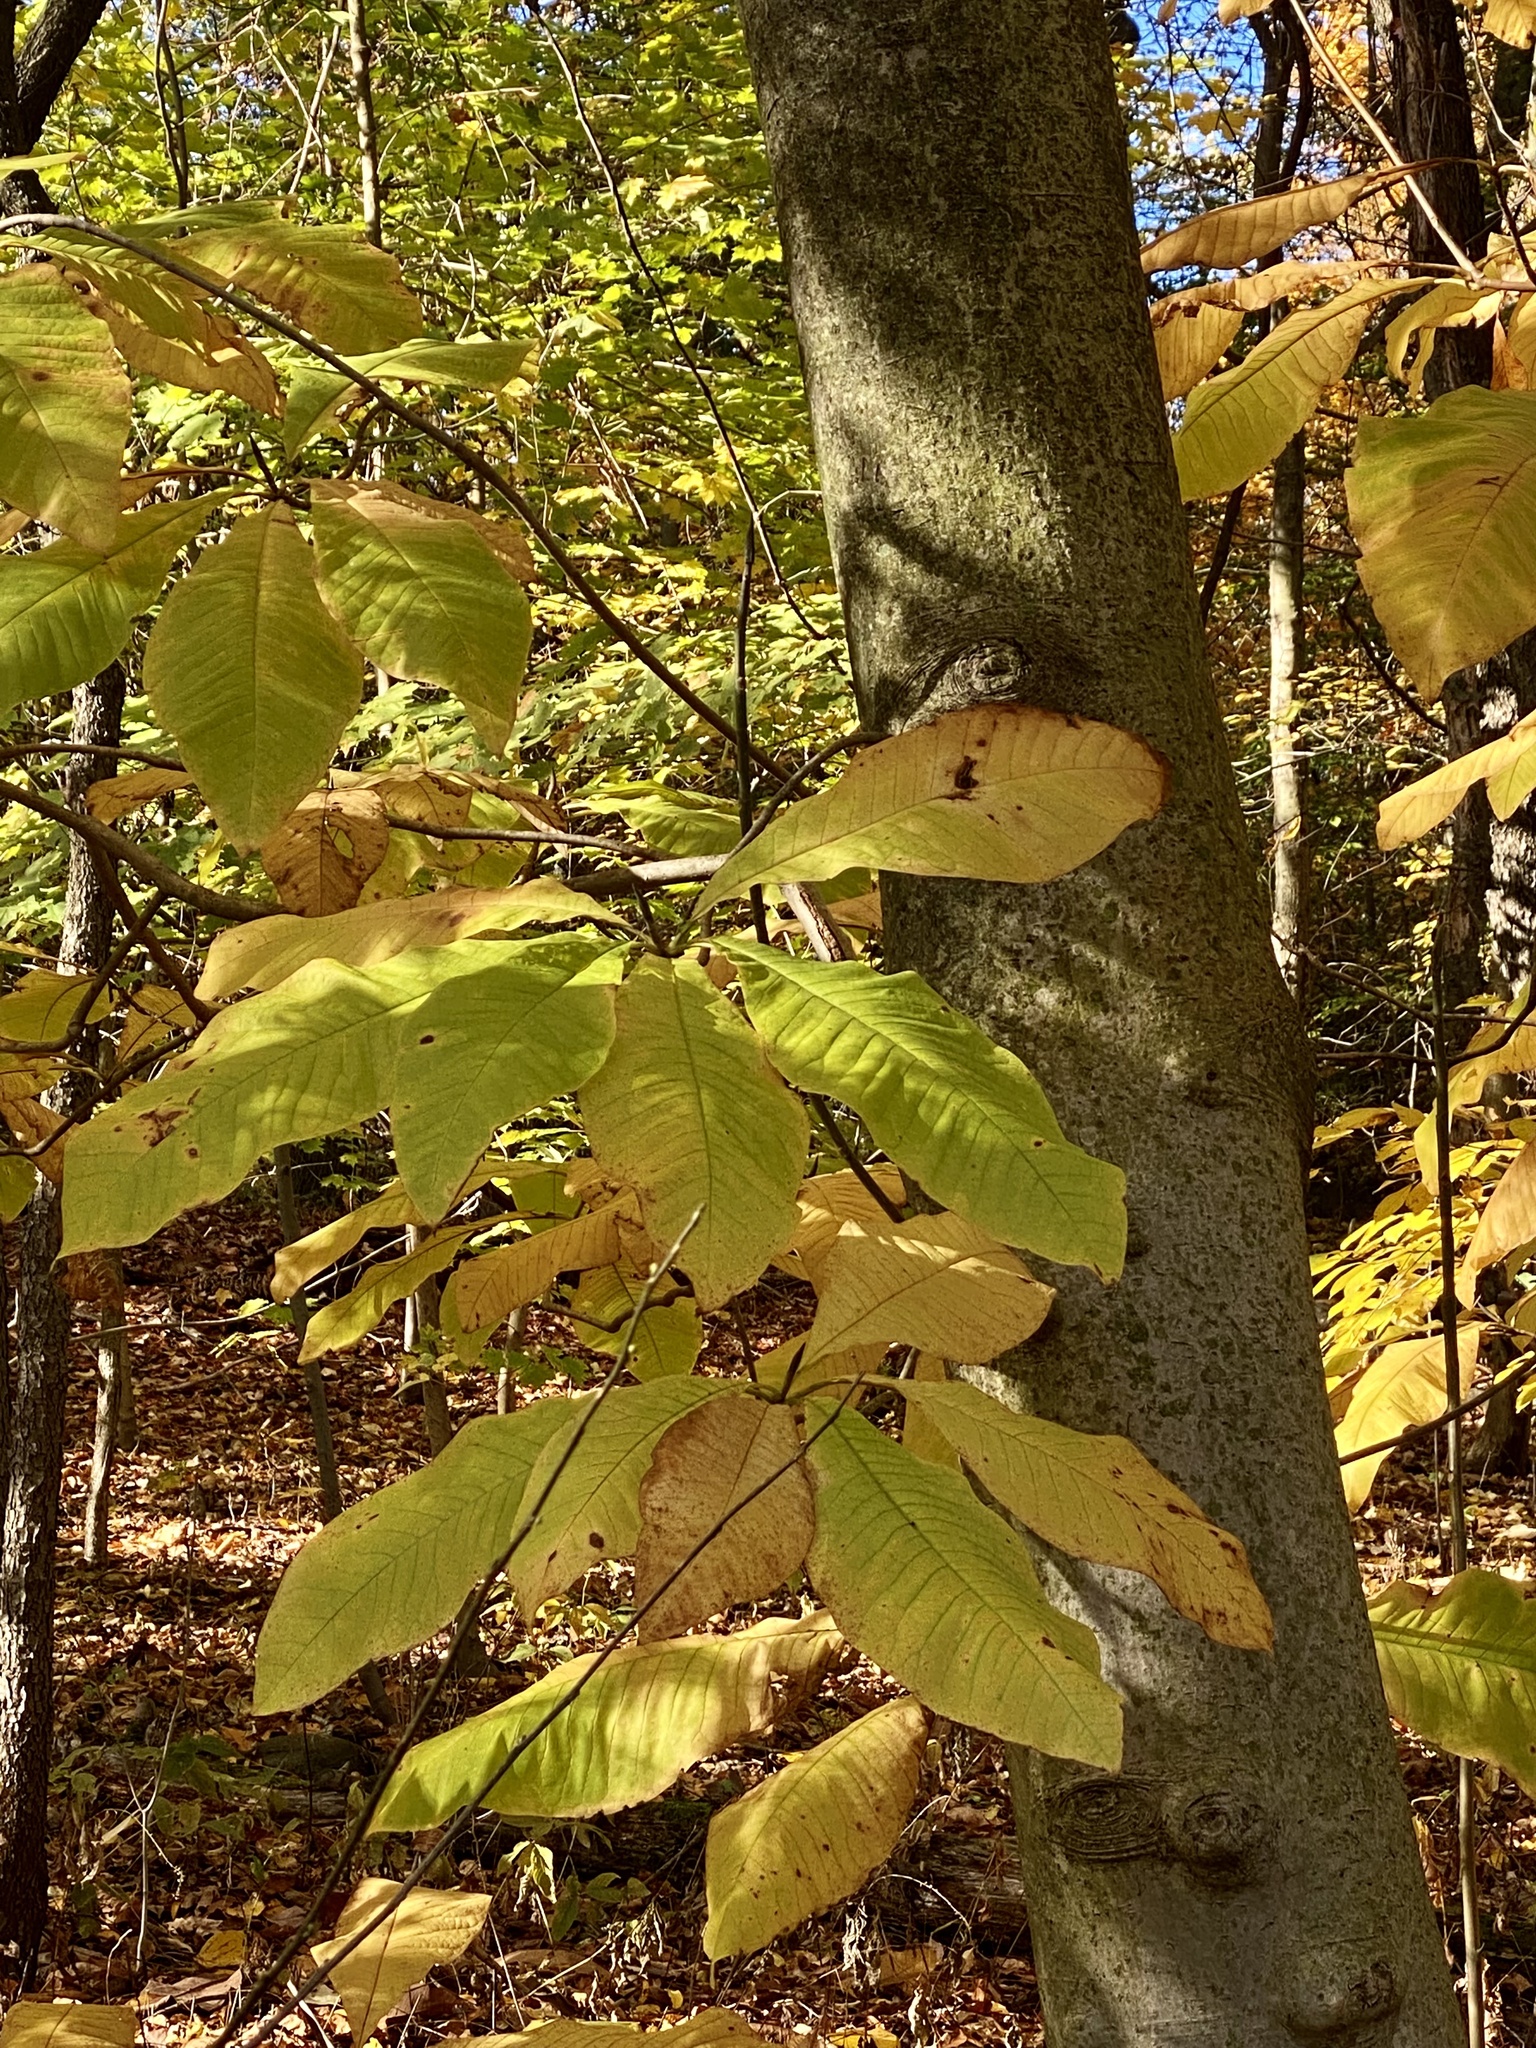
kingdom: Plantae
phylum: Tracheophyta
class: Magnoliopsida
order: Magnoliales
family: Magnoliaceae
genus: Magnolia
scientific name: Magnolia tripetala
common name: Umbrella magnolia
